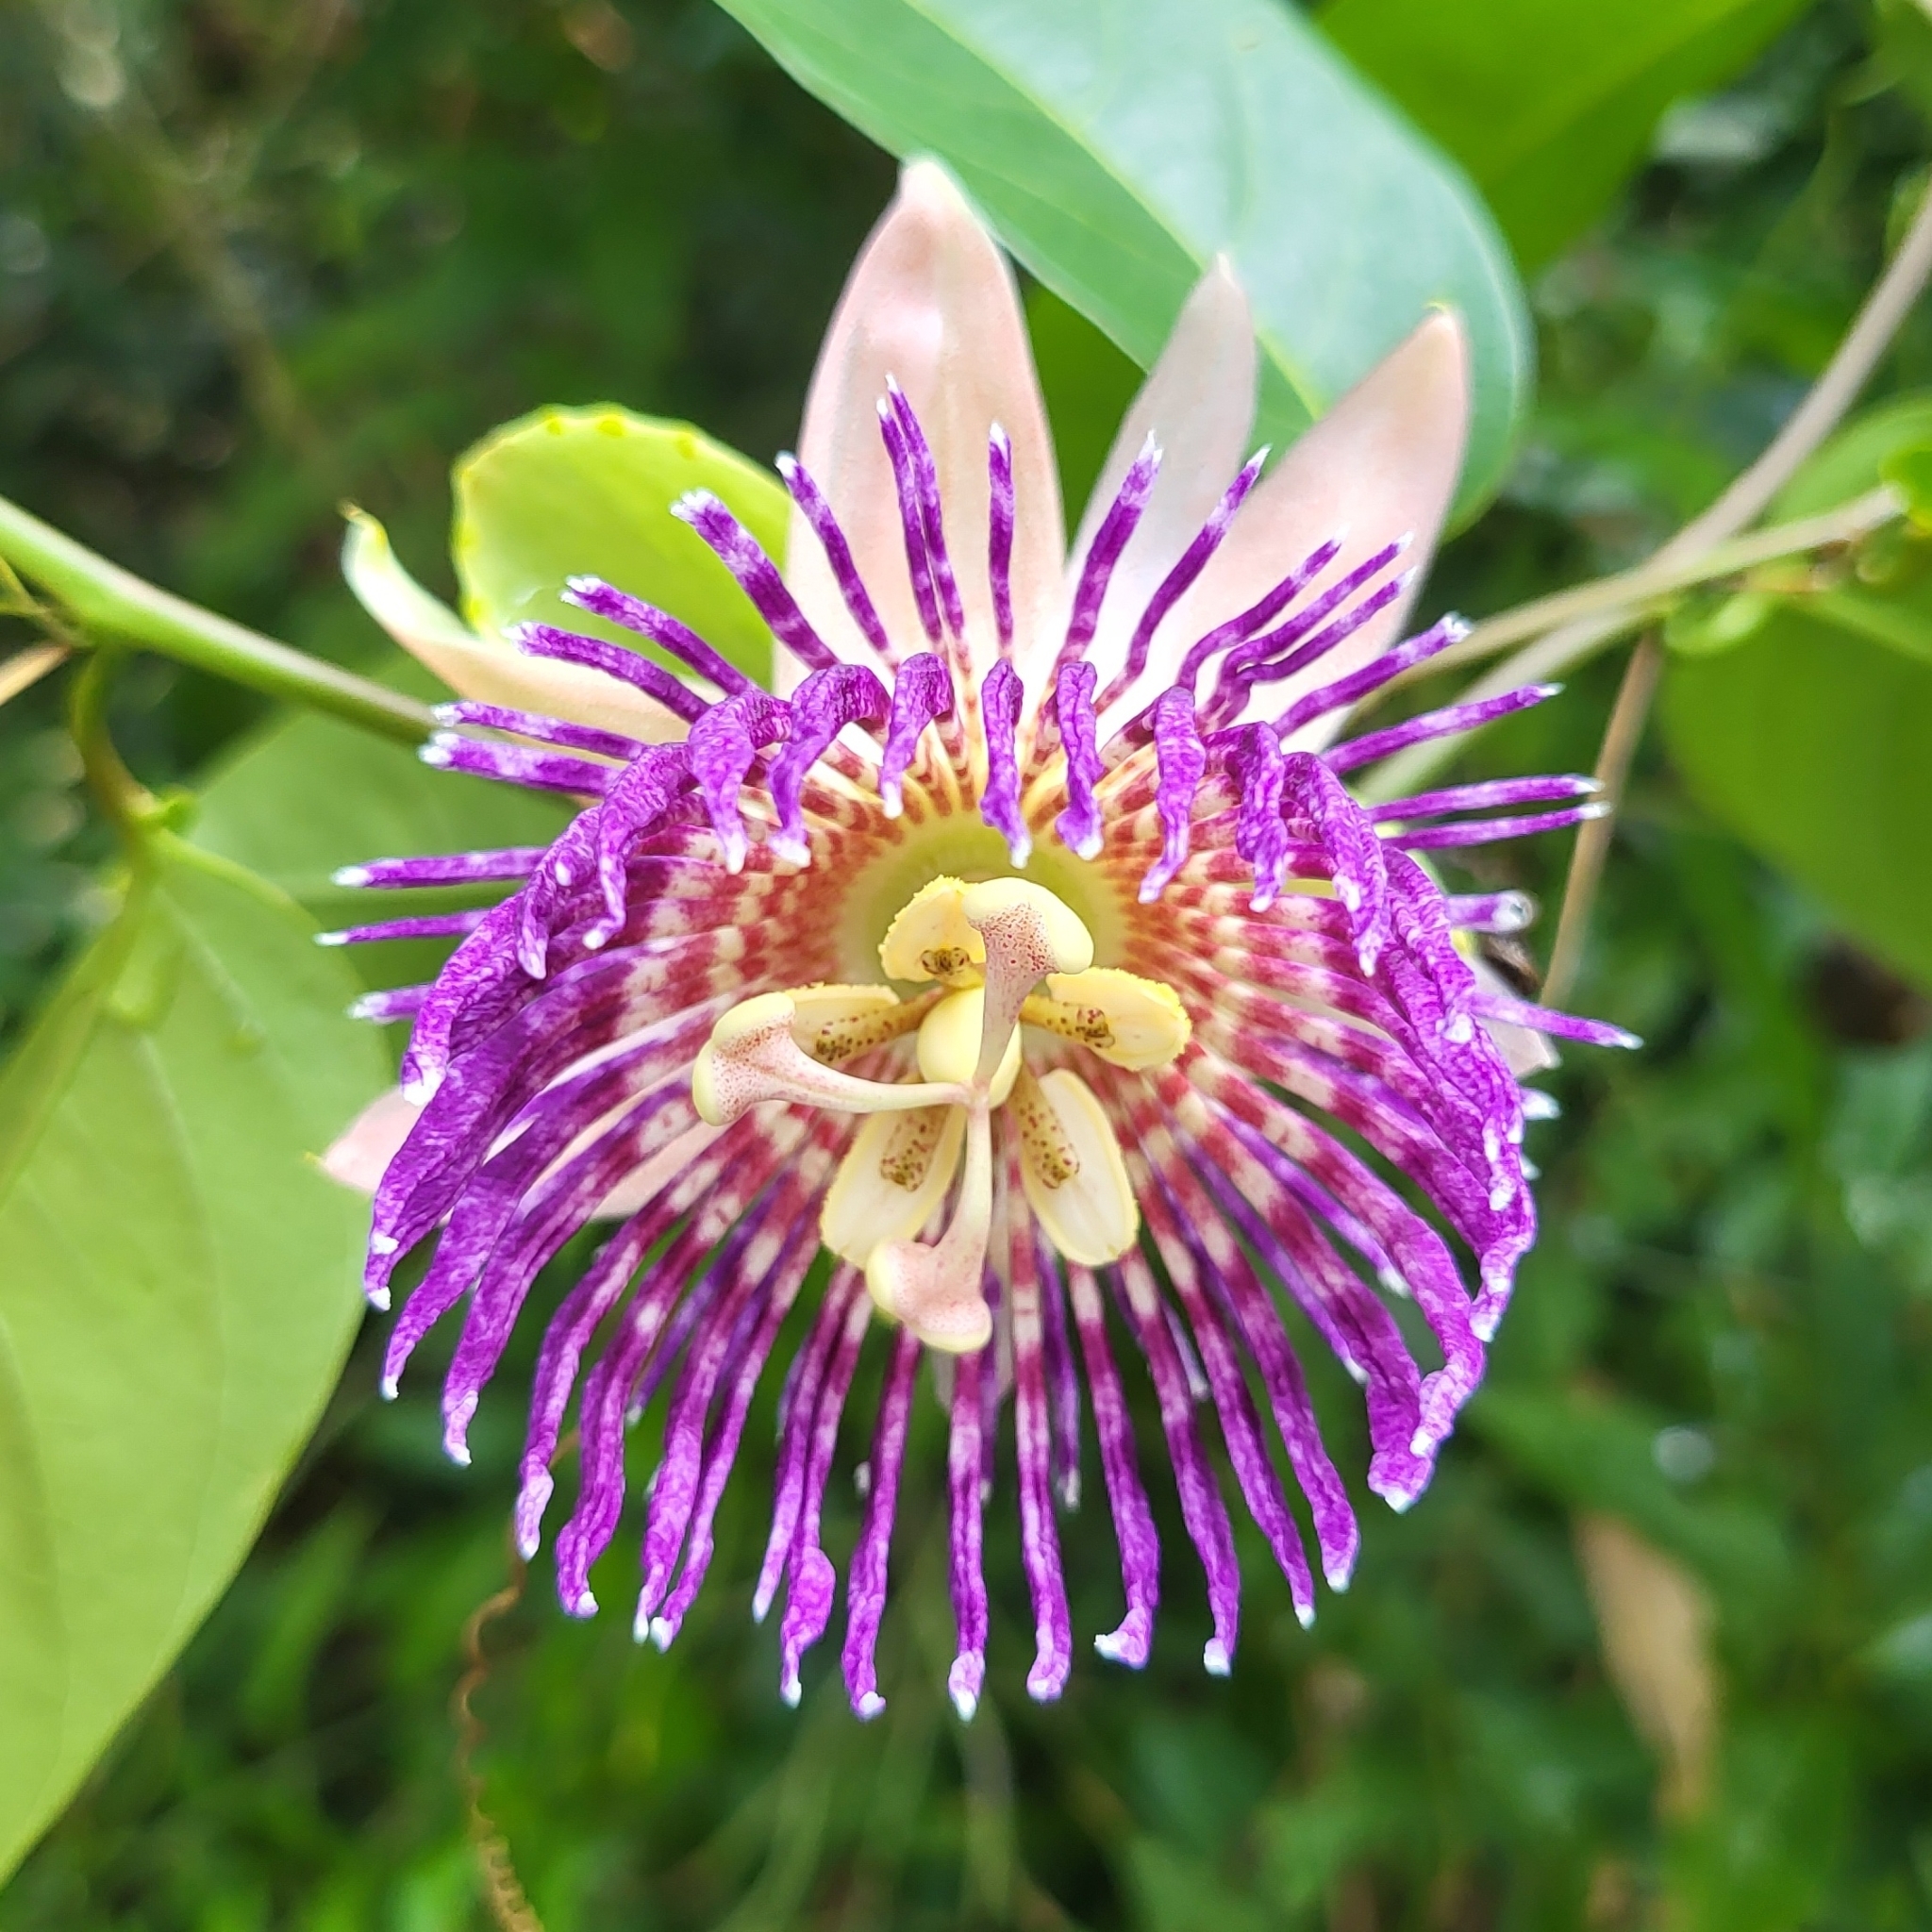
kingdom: Plantae
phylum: Tracheophyta
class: Magnoliopsida
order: Malpighiales
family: Passifloraceae
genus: Passiflora
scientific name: Passiflora laurifolia
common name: Bell apple
